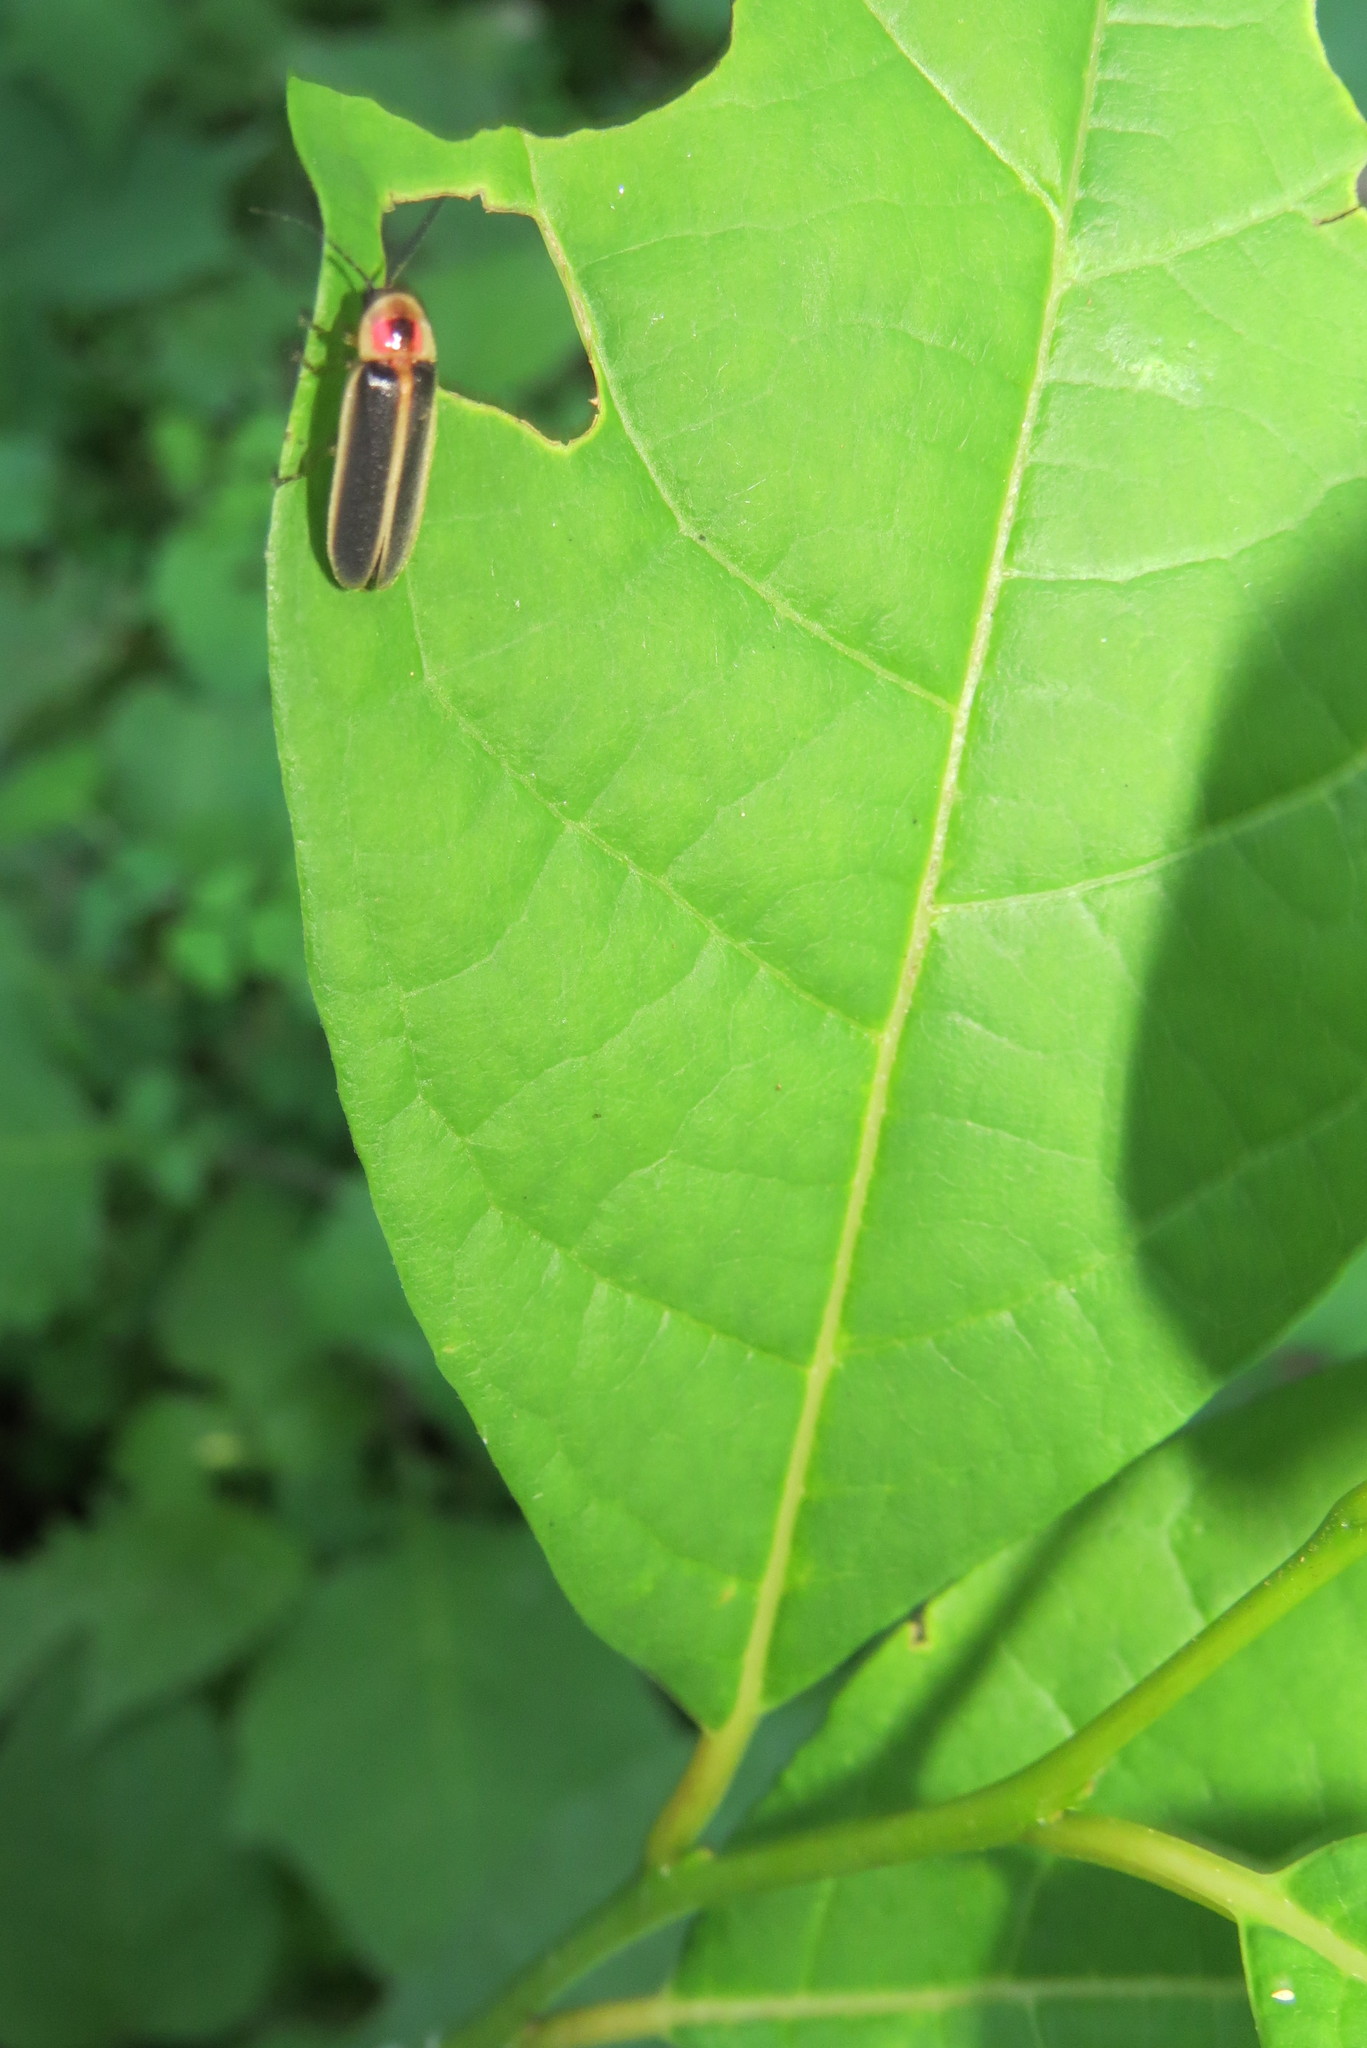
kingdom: Animalia
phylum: Arthropoda
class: Insecta
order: Coleoptera
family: Lampyridae
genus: Photinus
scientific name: Photinus pyralis
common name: Big dipper firefly
